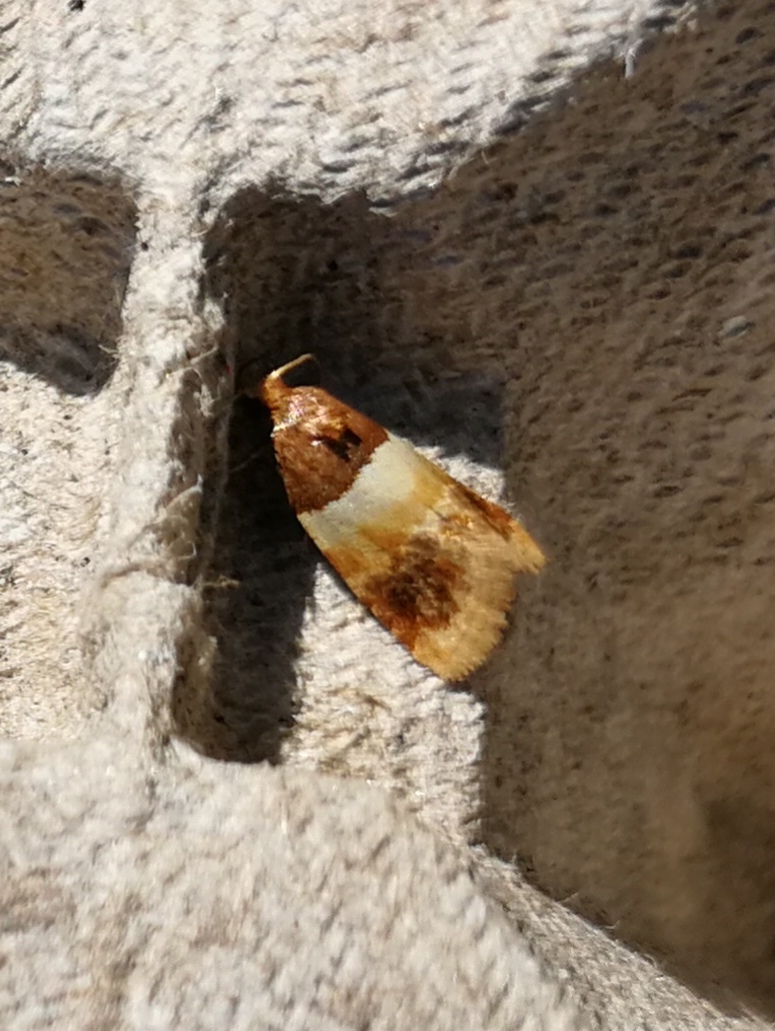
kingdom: Animalia
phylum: Arthropoda
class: Insecta
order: Lepidoptera
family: Tortricidae
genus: Epinotia
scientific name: Epinotia festivana
